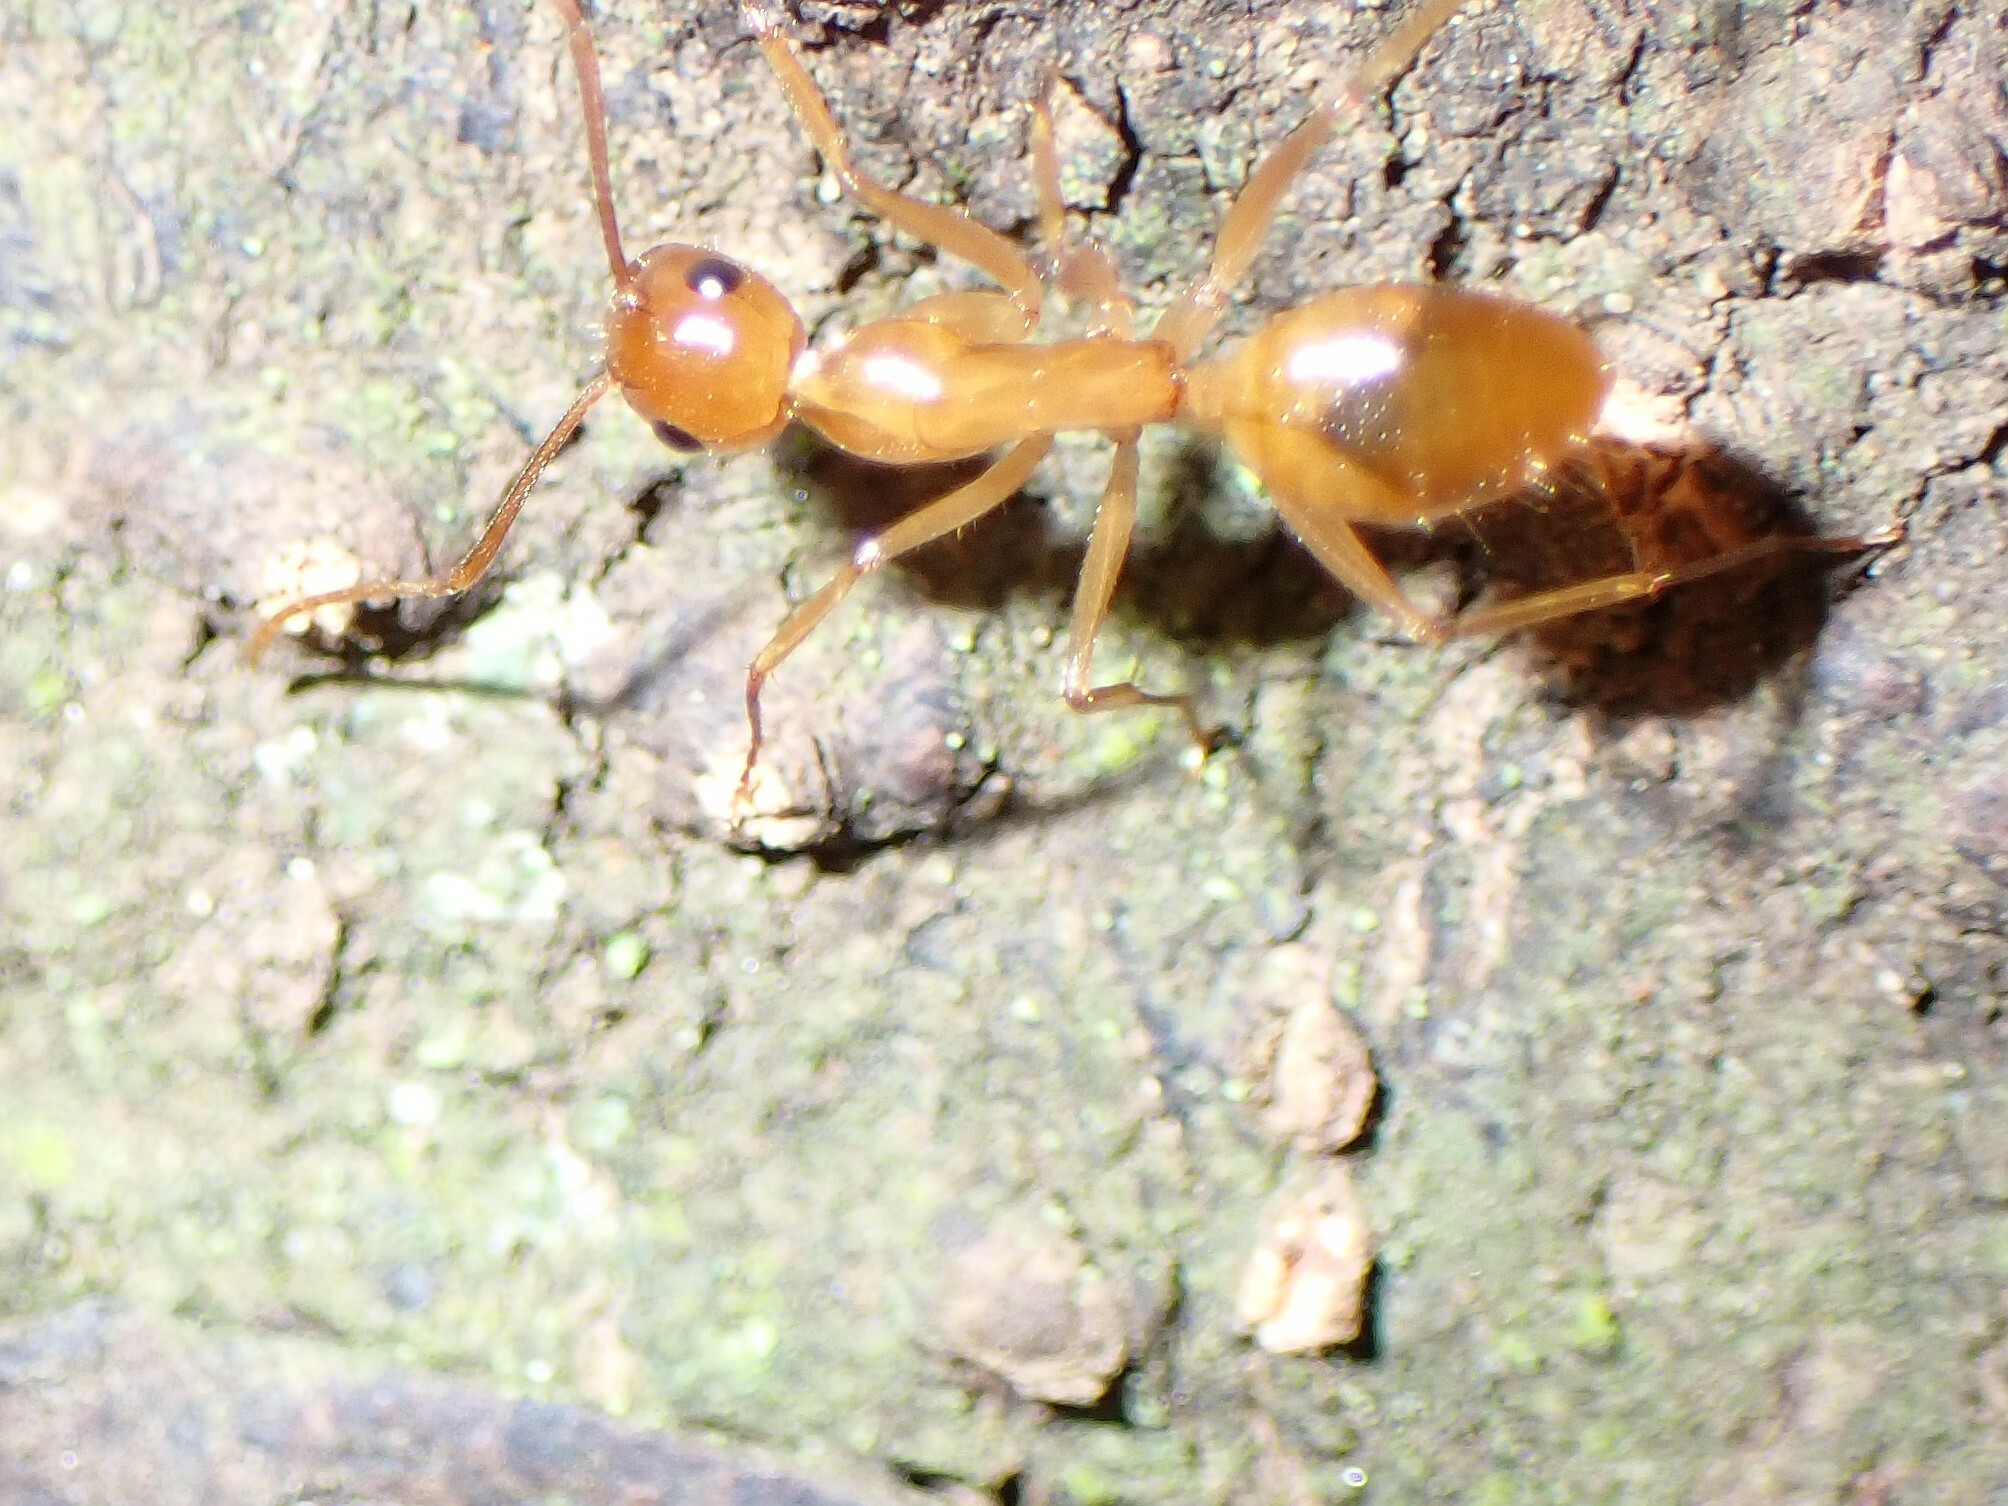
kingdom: Animalia
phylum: Arthropoda
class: Insecta
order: Hymenoptera
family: Formicidae
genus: Camponotus
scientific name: Camponotus chloroticus
